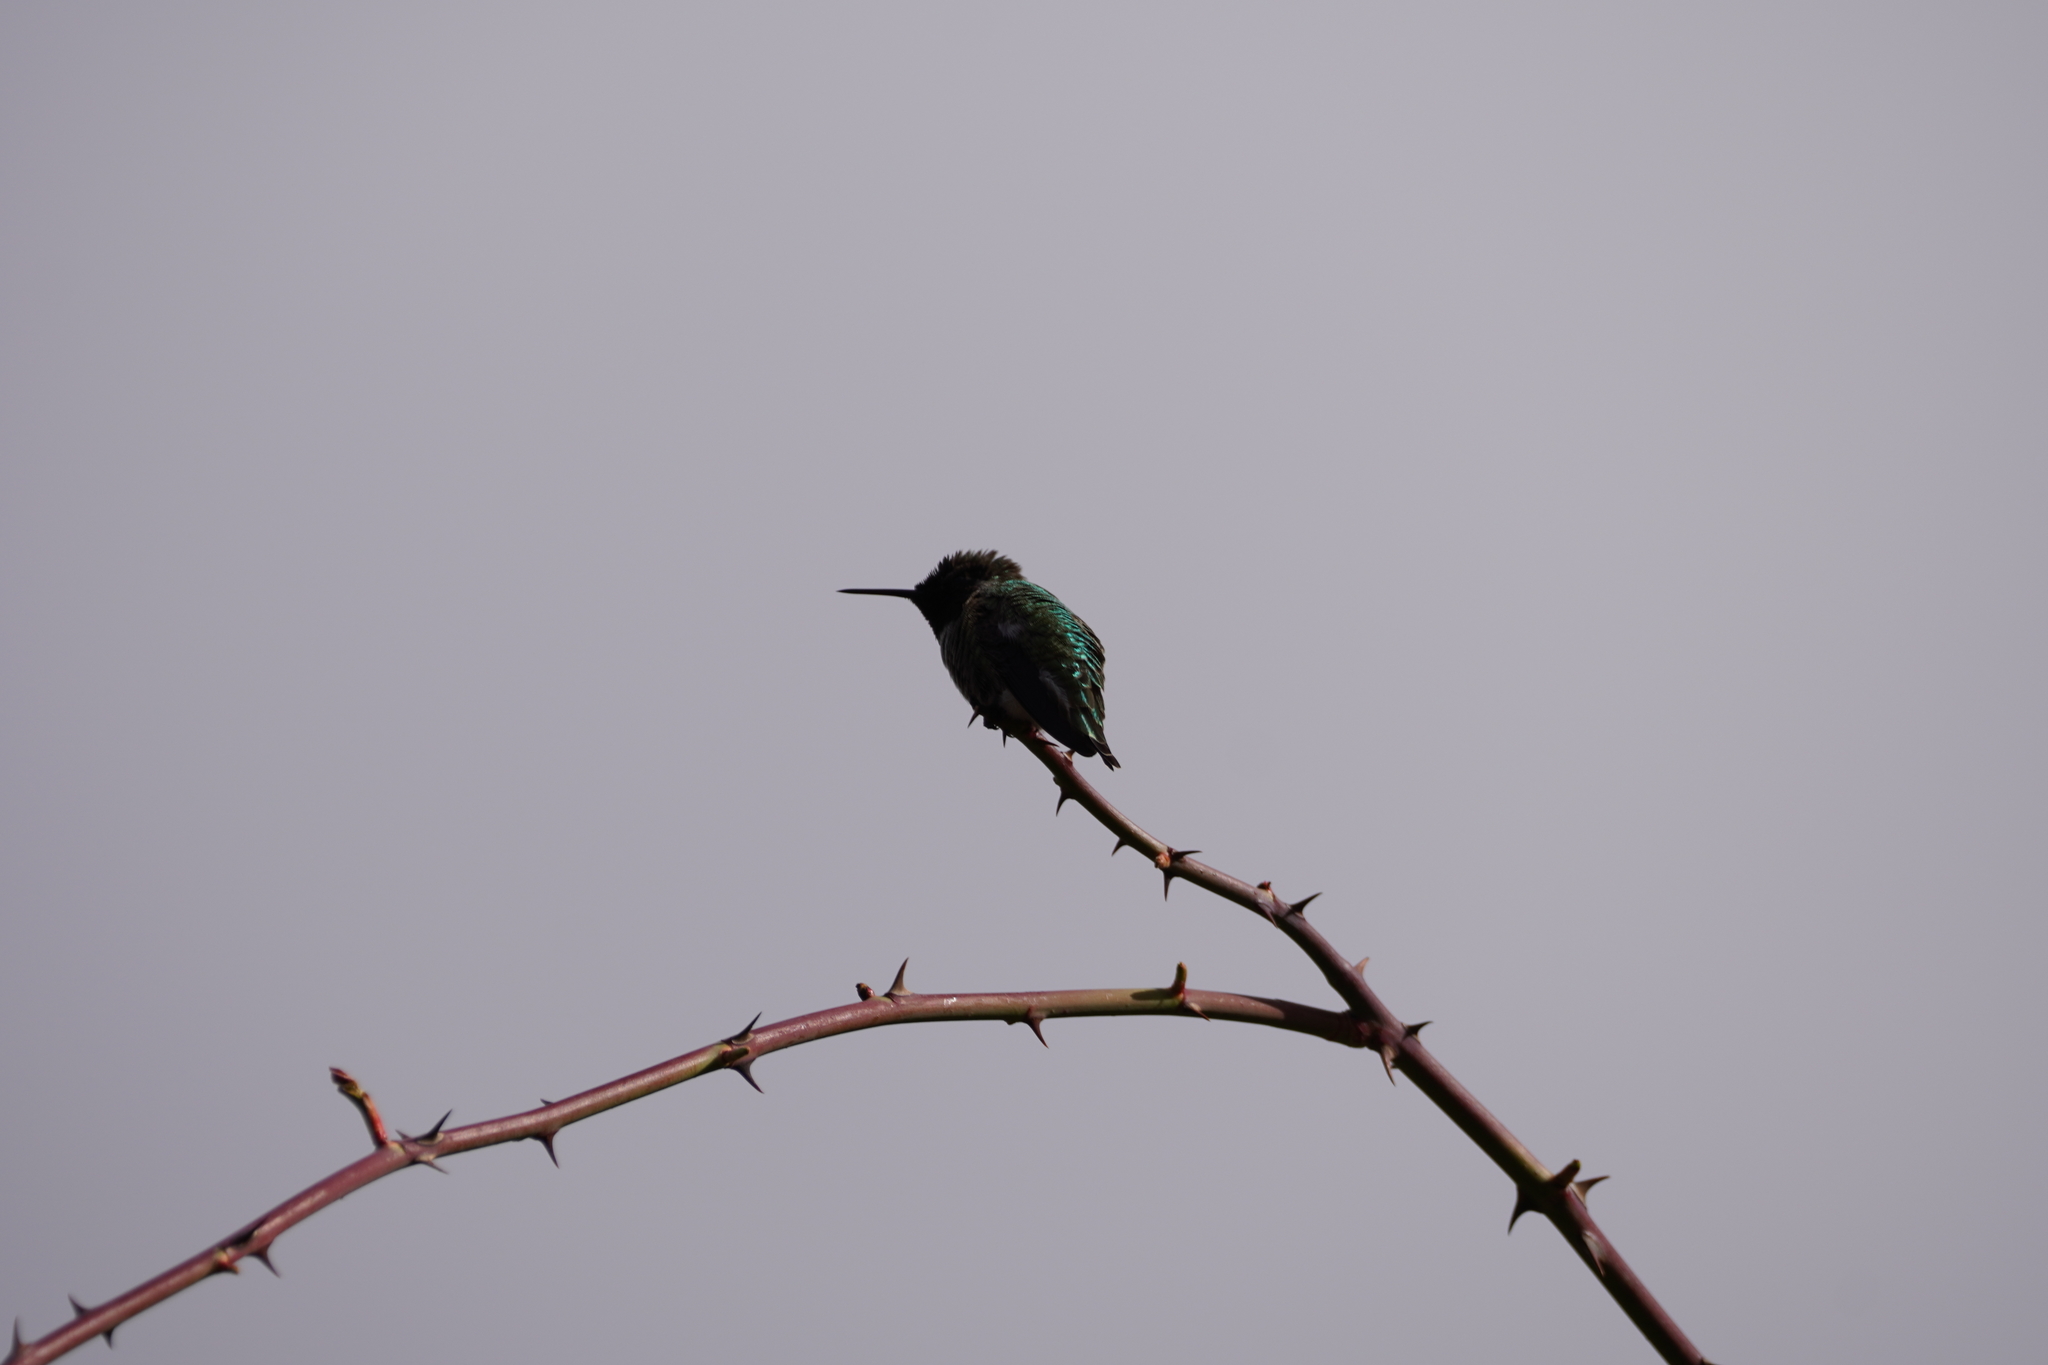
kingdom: Animalia
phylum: Chordata
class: Aves
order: Apodiformes
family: Trochilidae
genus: Calypte
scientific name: Calypte anna
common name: Anna's hummingbird
